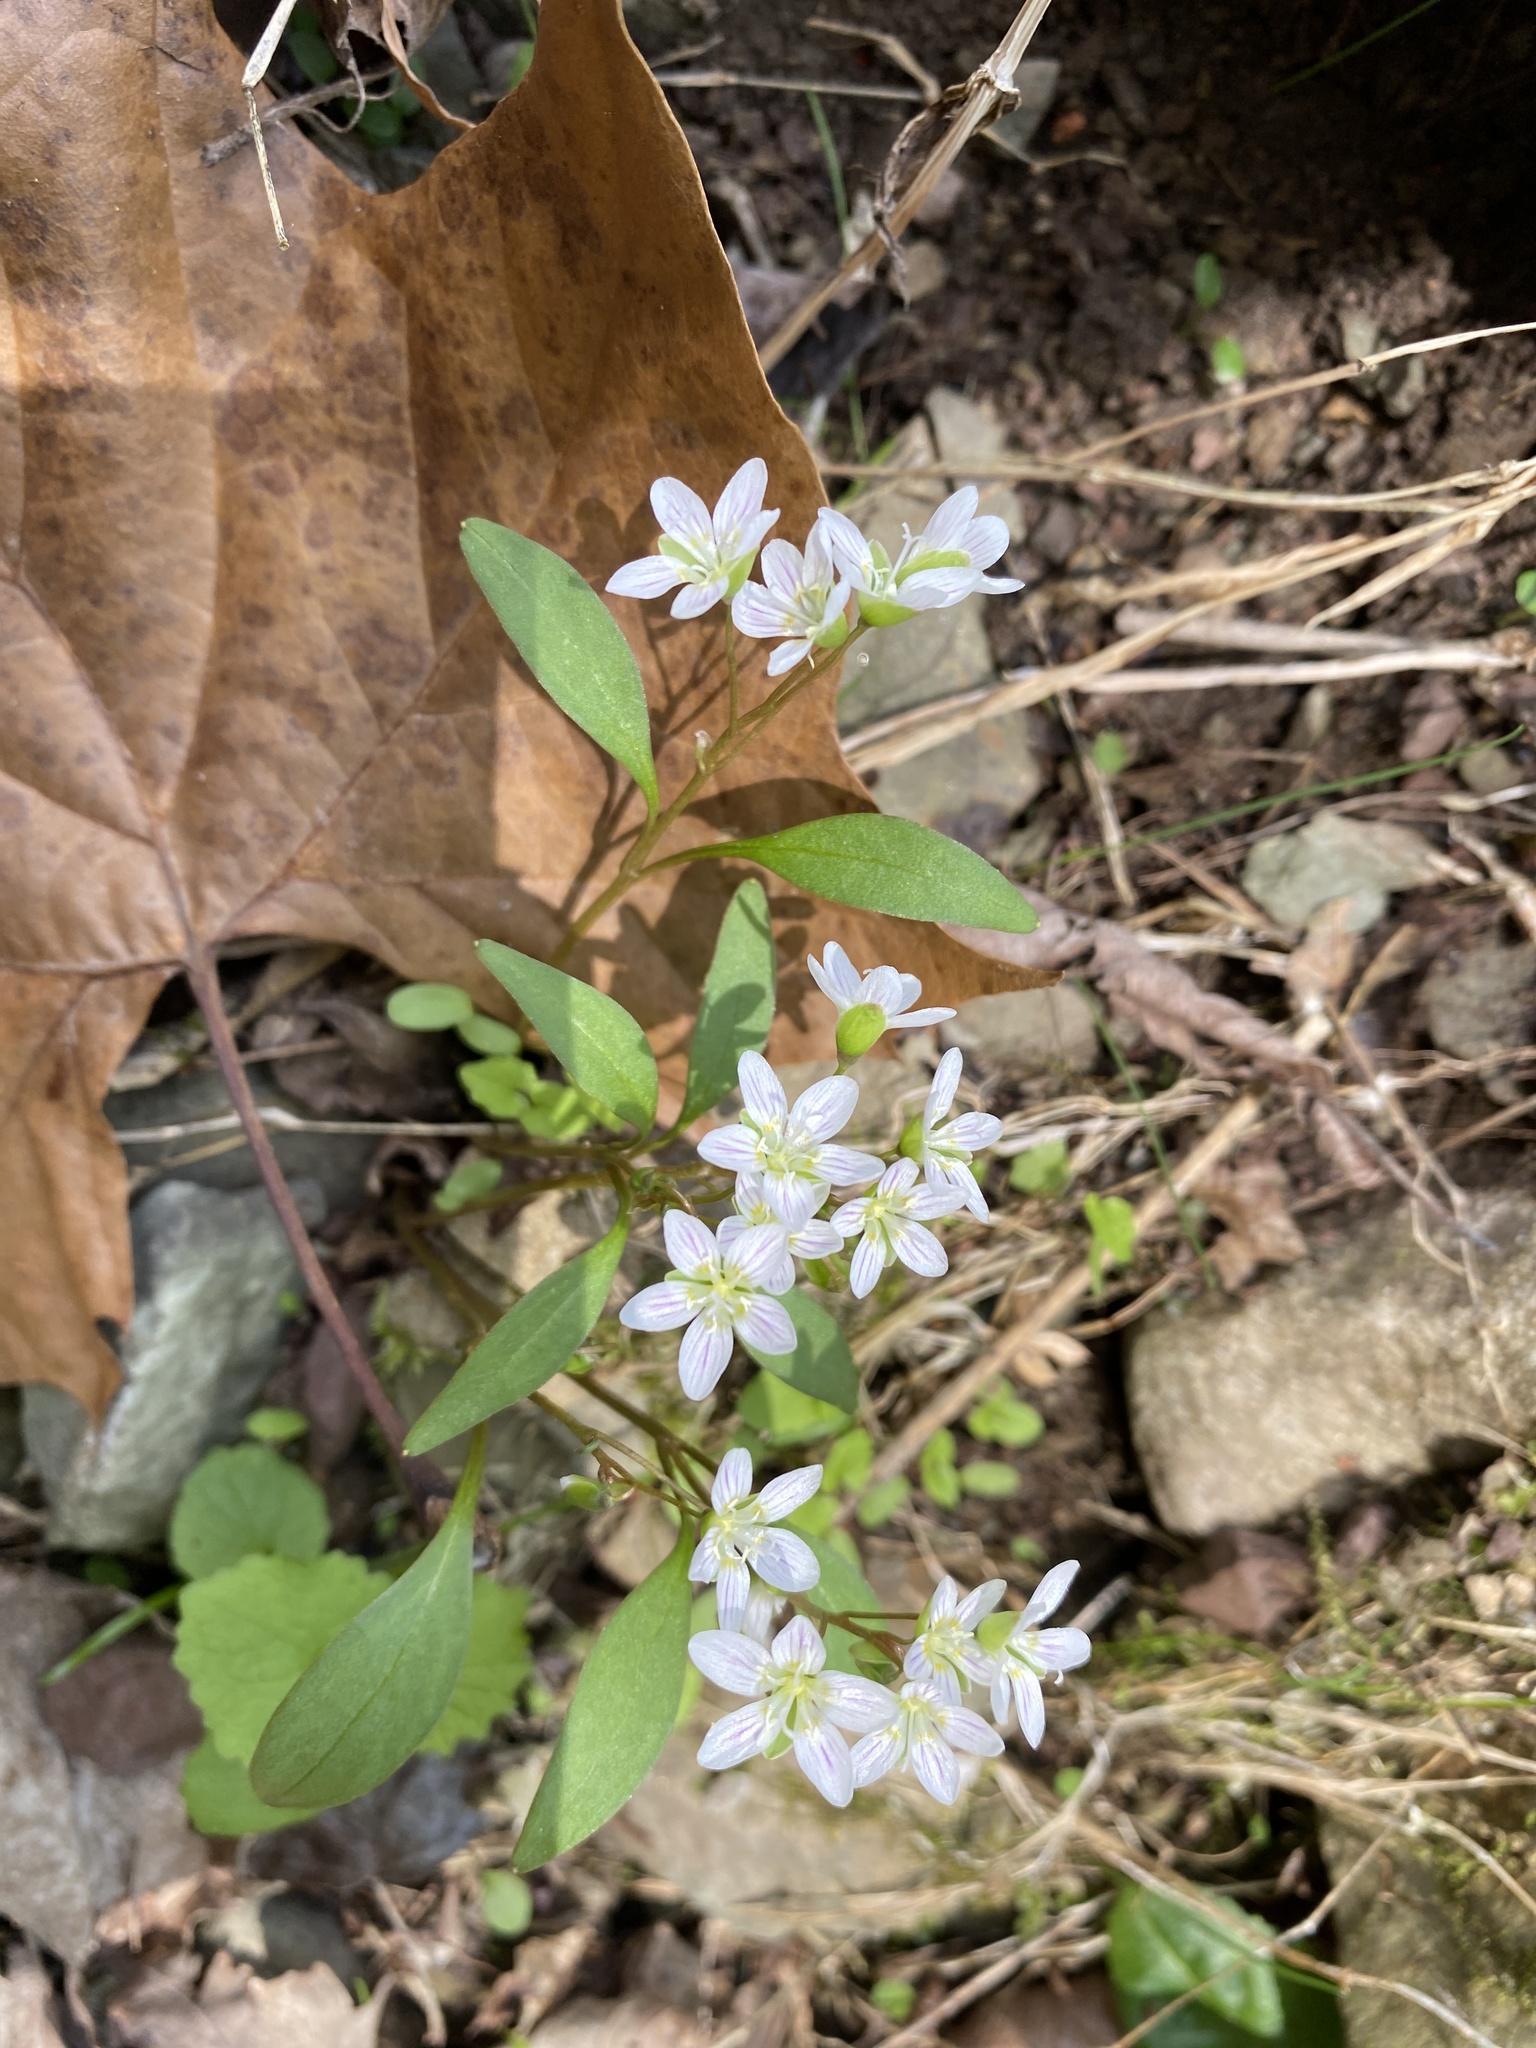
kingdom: Plantae
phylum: Tracheophyta
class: Magnoliopsida
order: Caryophyllales
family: Montiaceae
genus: Claytonia
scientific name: Claytonia caroliniana
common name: Carolina spring beauty
